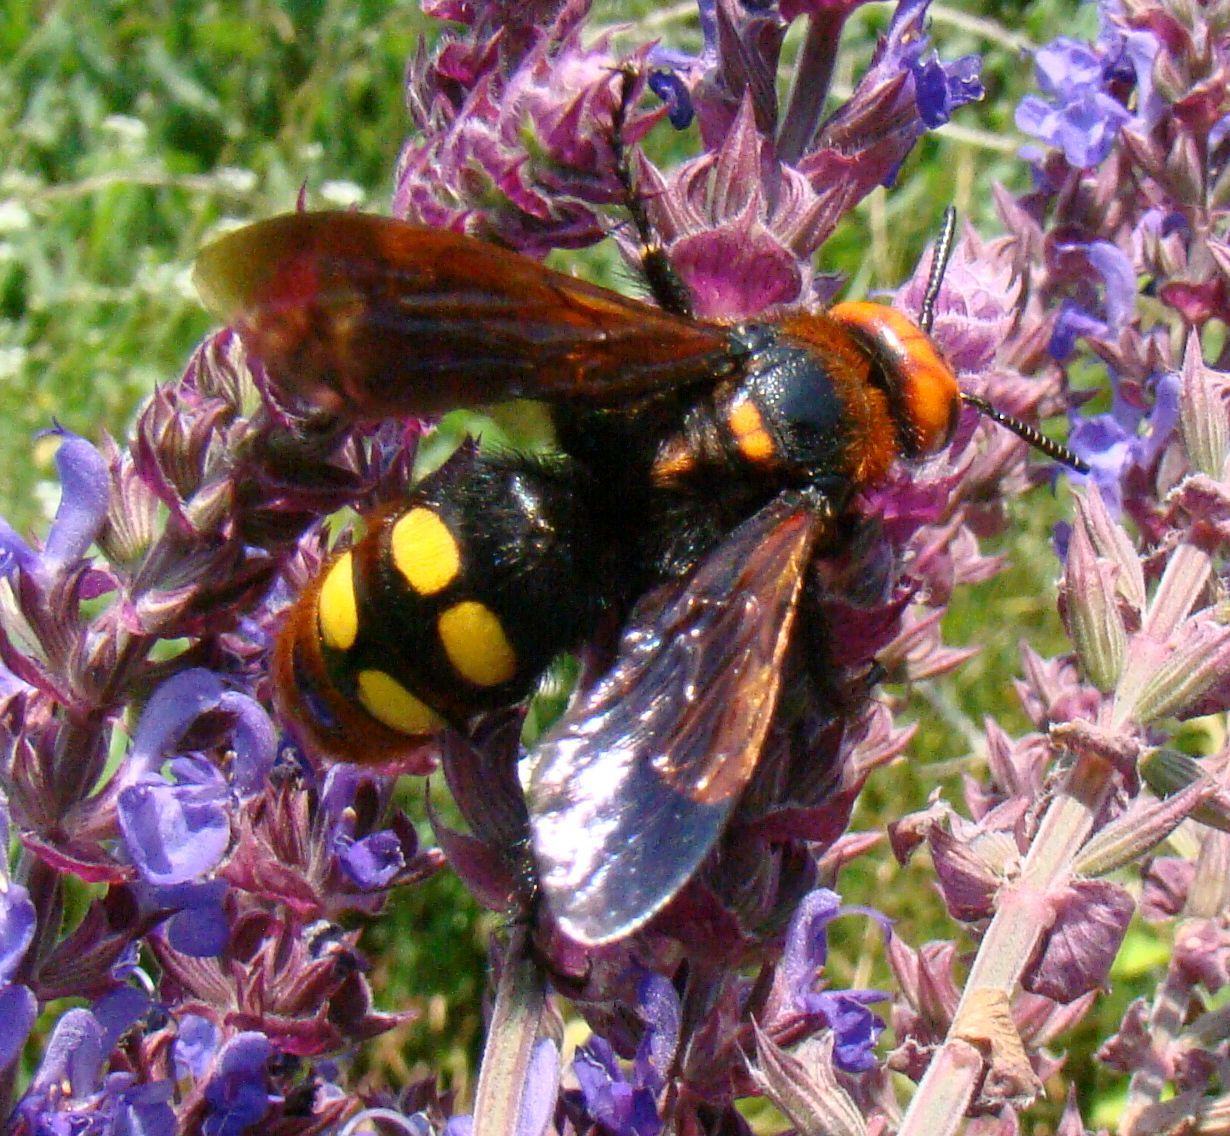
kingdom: Animalia
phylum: Arthropoda
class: Insecta
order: Hymenoptera
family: Scoliidae
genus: Megascolia
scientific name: Megascolia maculata
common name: Mammoth wasp
